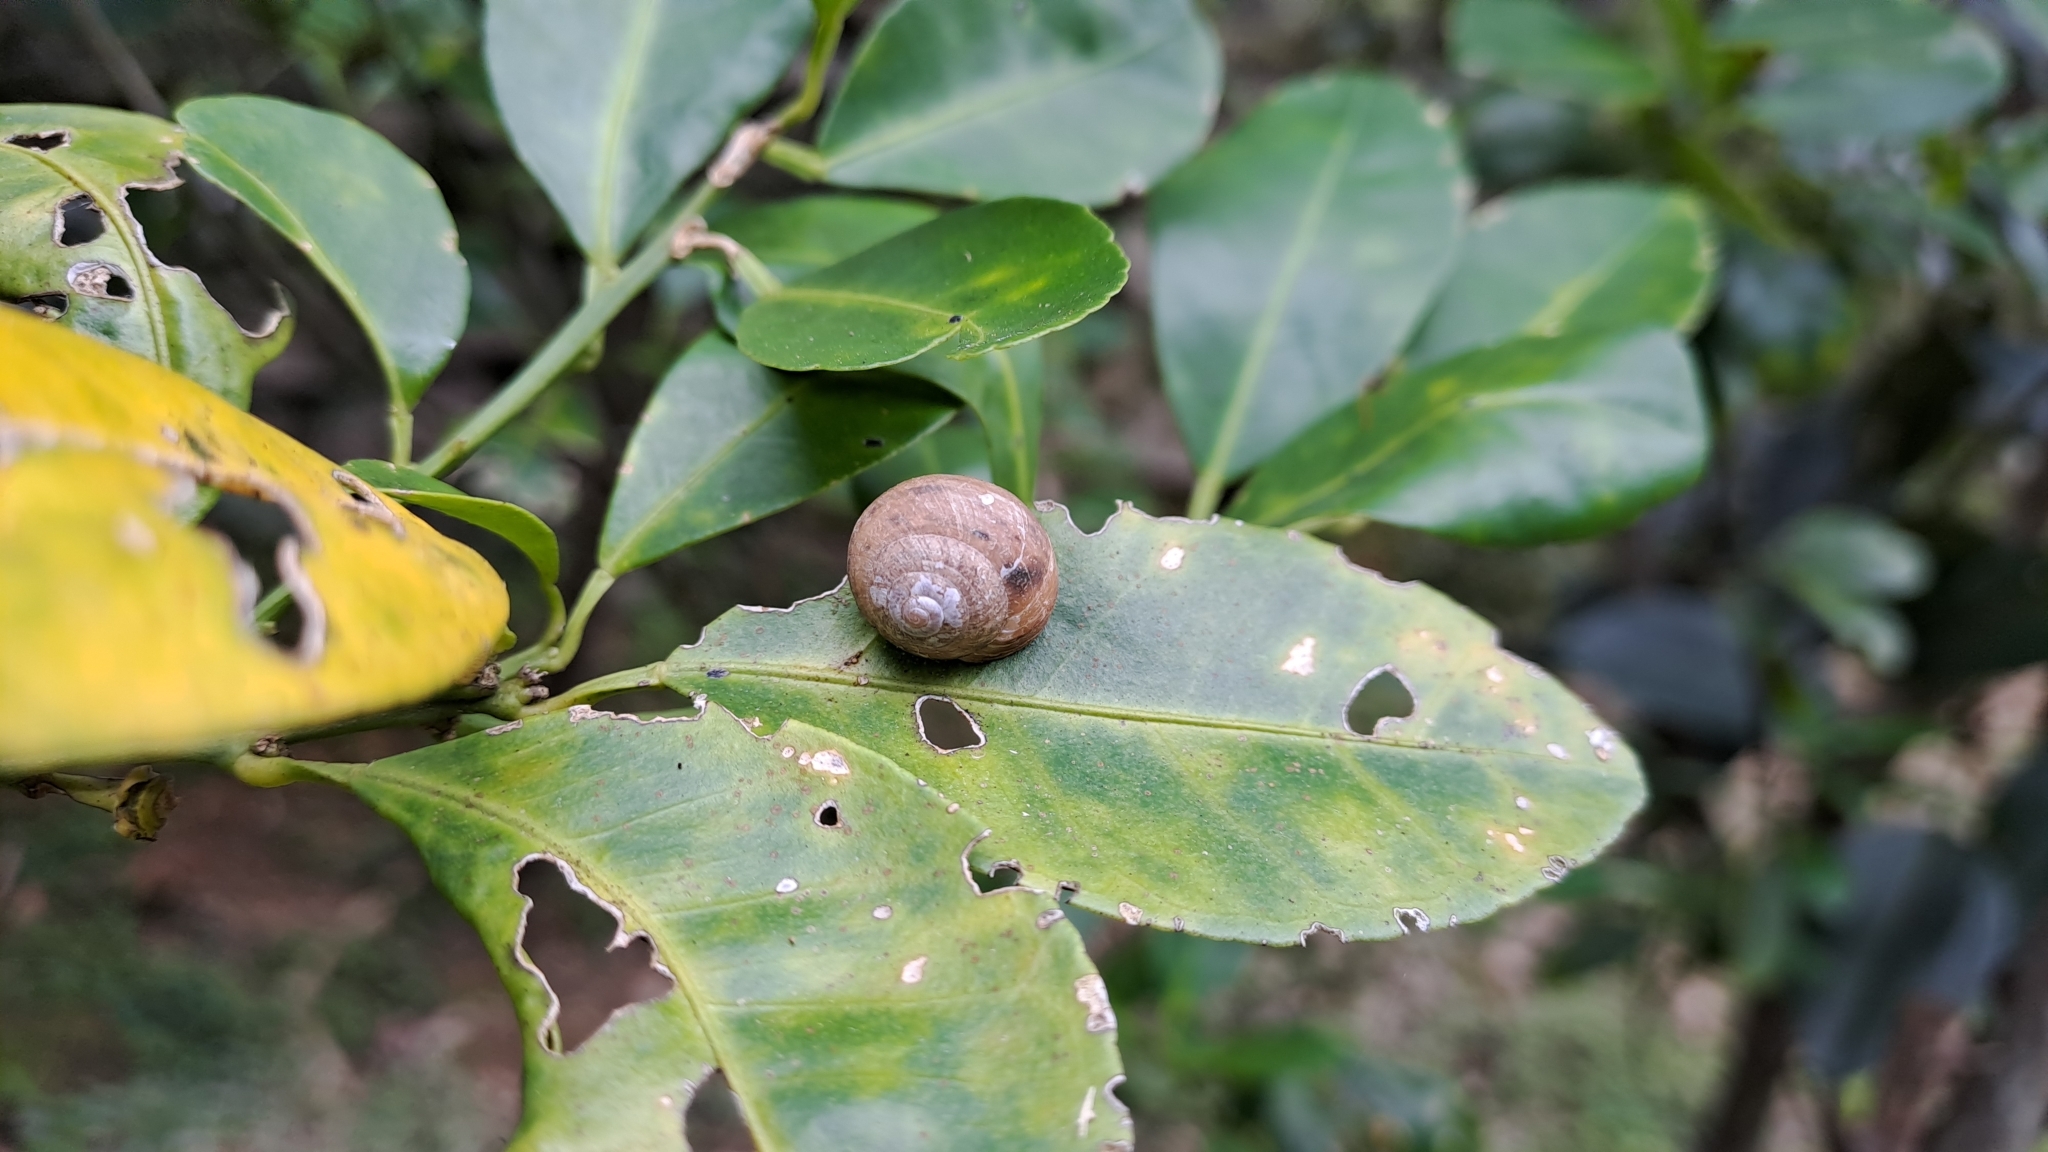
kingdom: Animalia
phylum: Mollusca
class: Gastropoda
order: Stylommatophora
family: Camaenidae
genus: Bradybaena
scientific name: Bradybaena similaris
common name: Asian trampsnail
